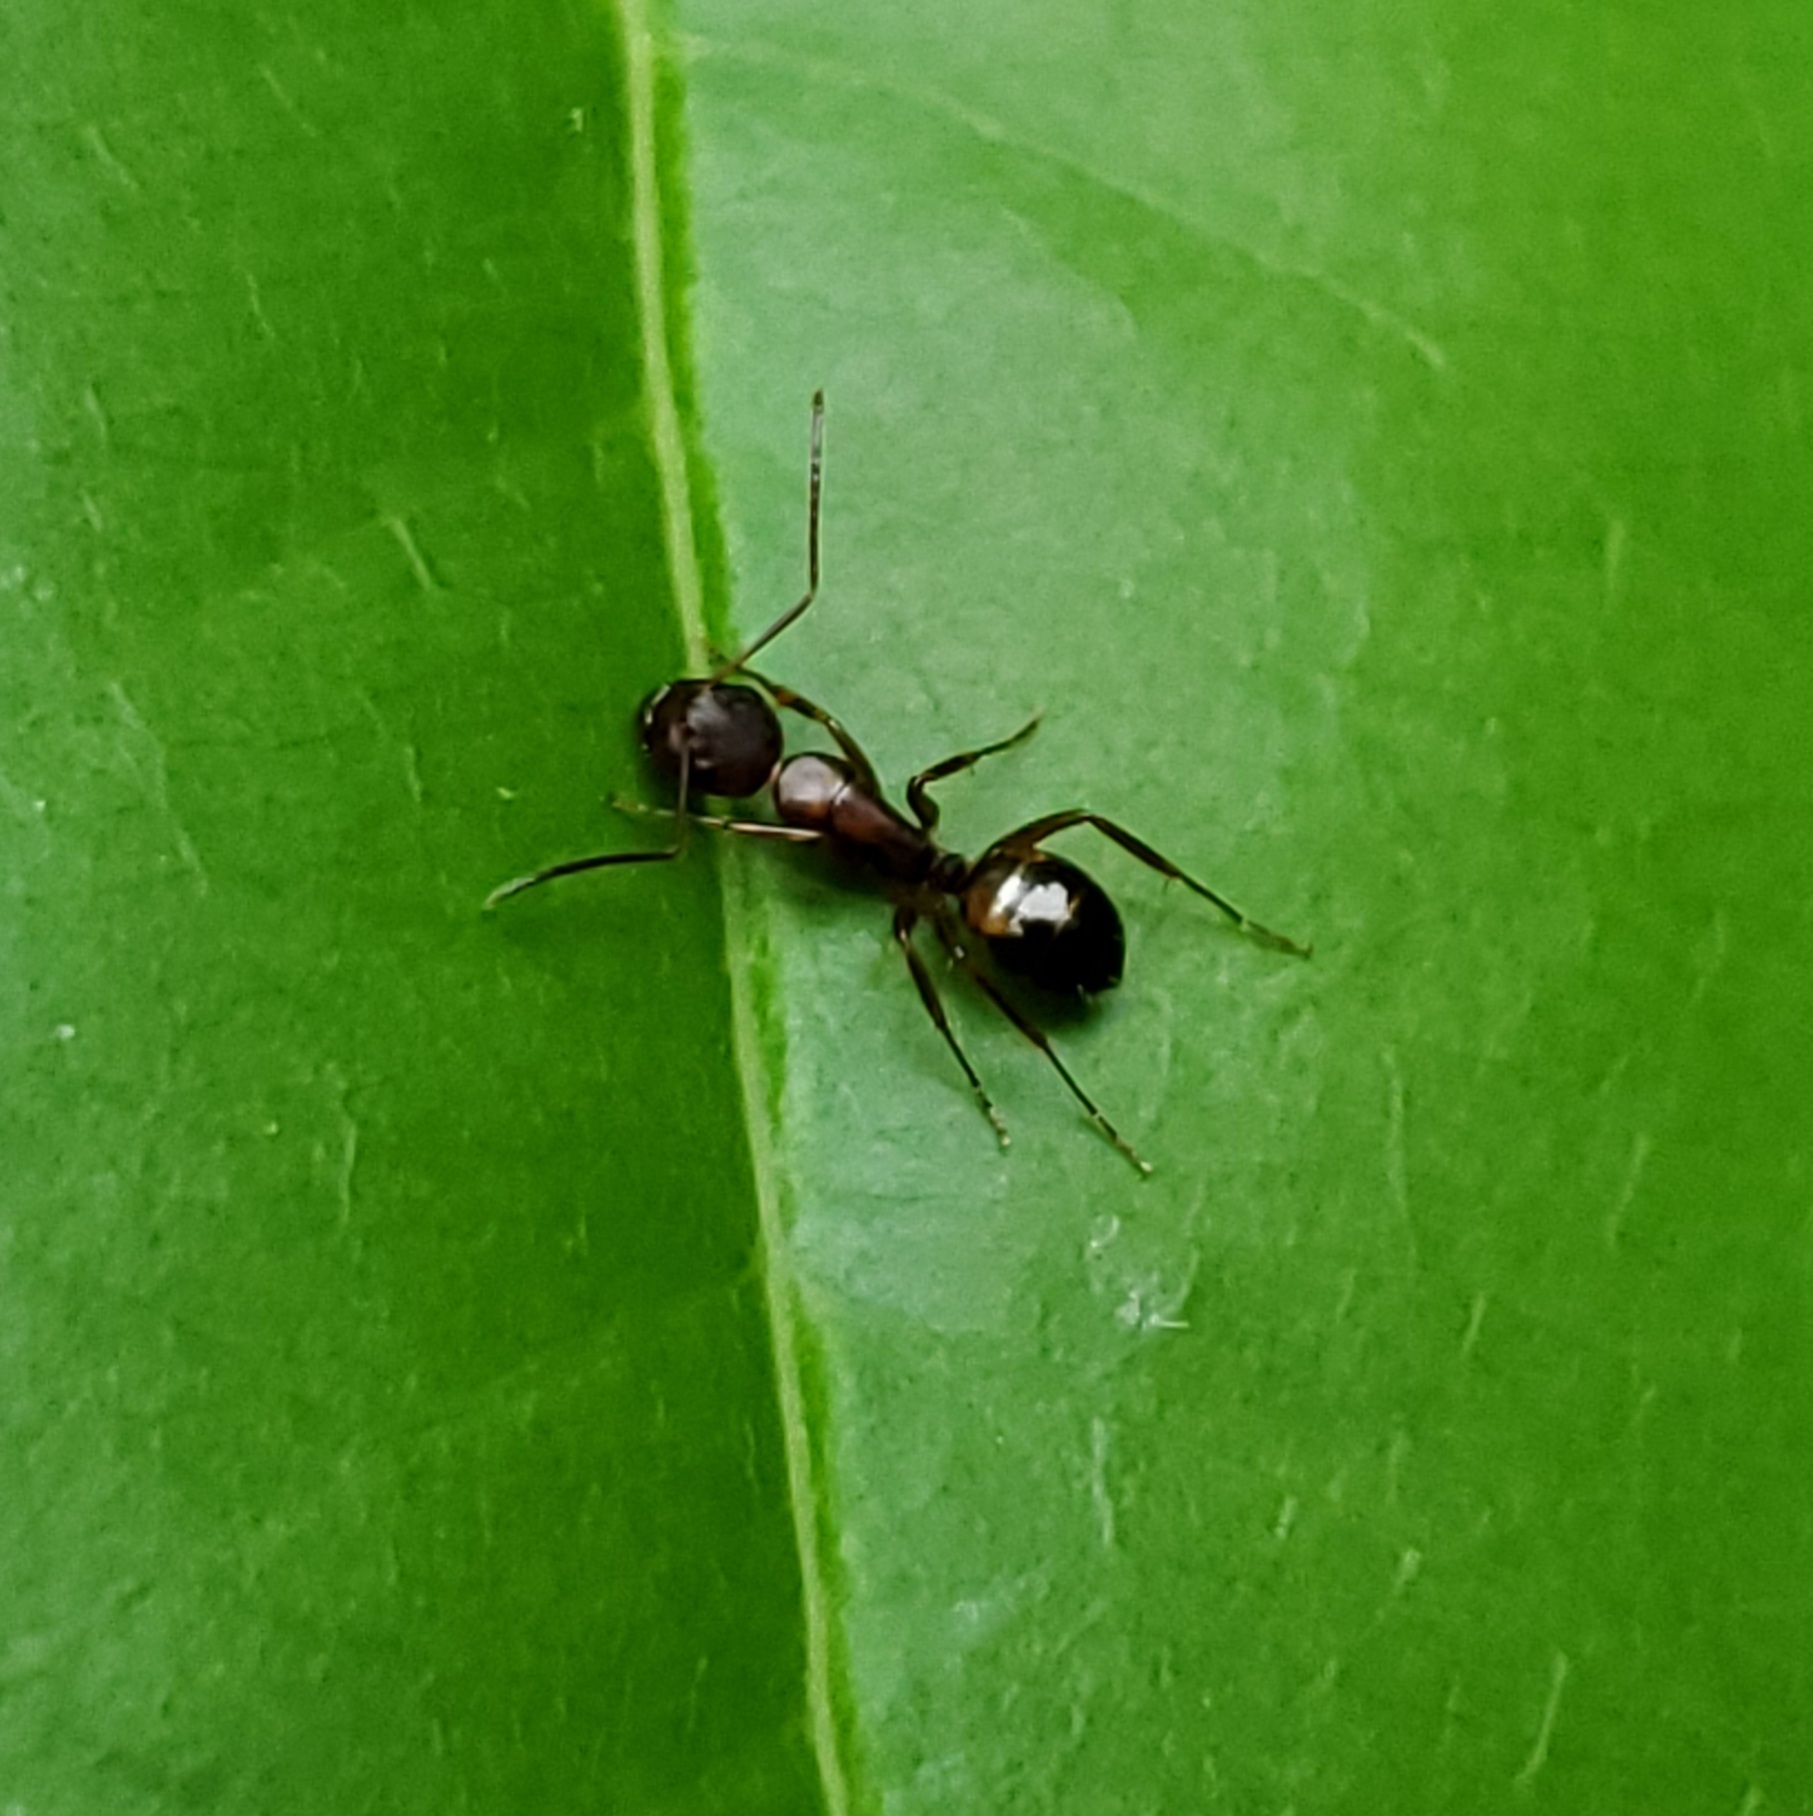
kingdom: Animalia
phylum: Arthropoda
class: Insecta
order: Hymenoptera
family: Formicidae
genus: Camponotus
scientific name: Camponotus subbarbatus
